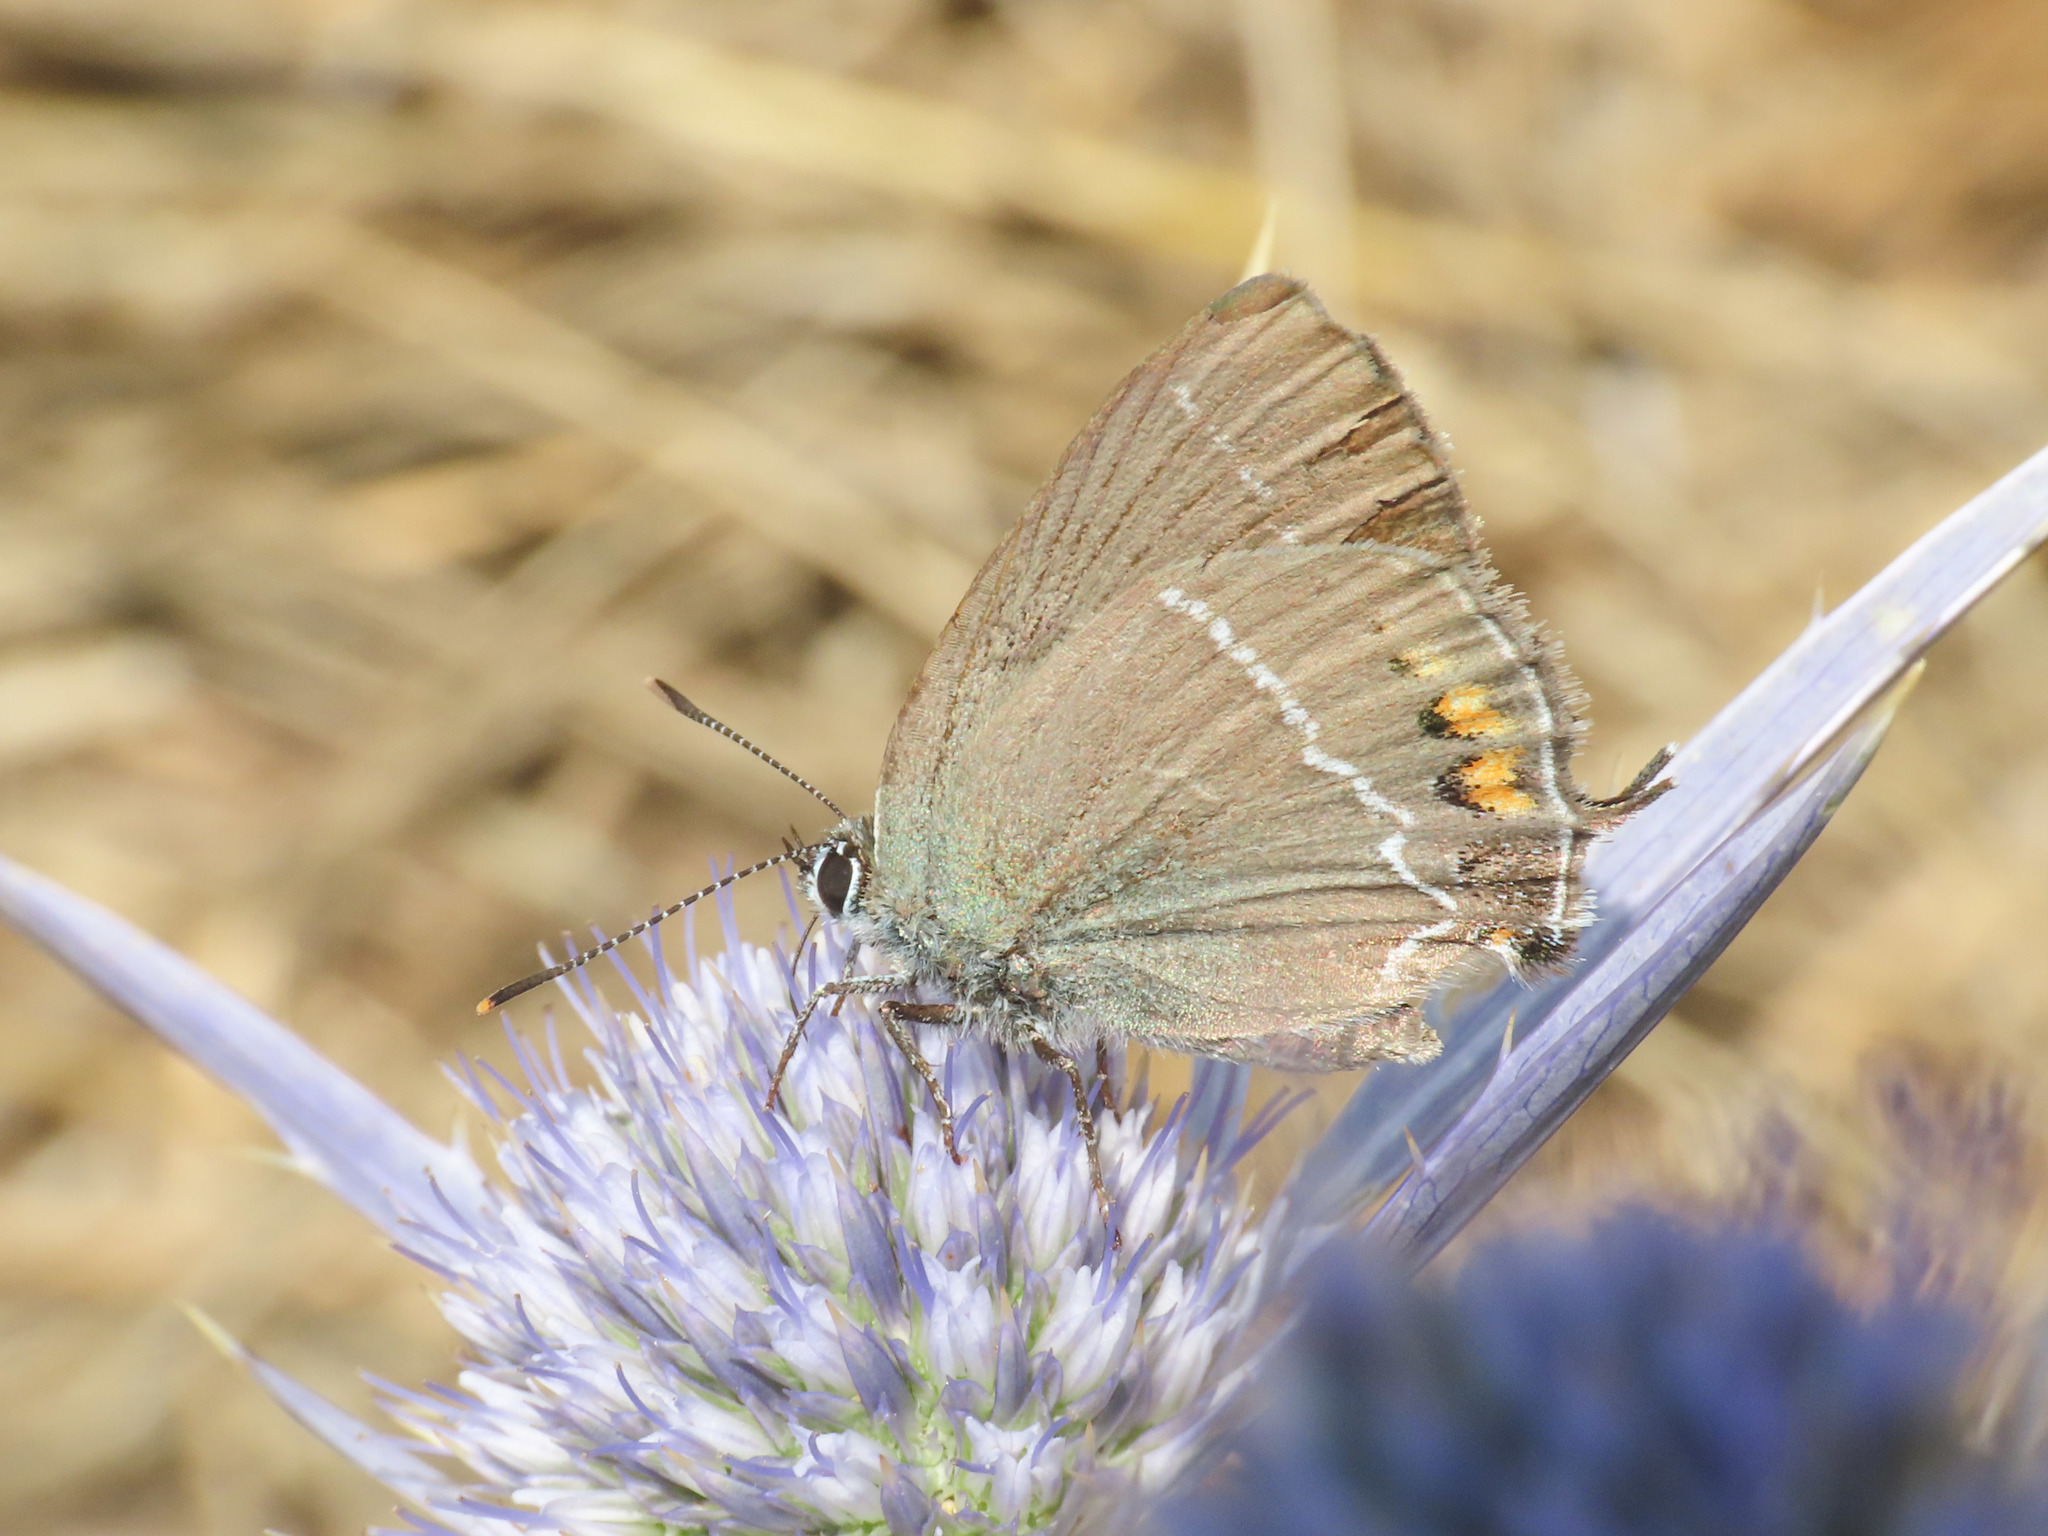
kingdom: Animalia
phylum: Arthropoda
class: Insecta
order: Lepidoptera
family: Lycaenidae
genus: Tuttiola
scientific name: Tuttiola spini
